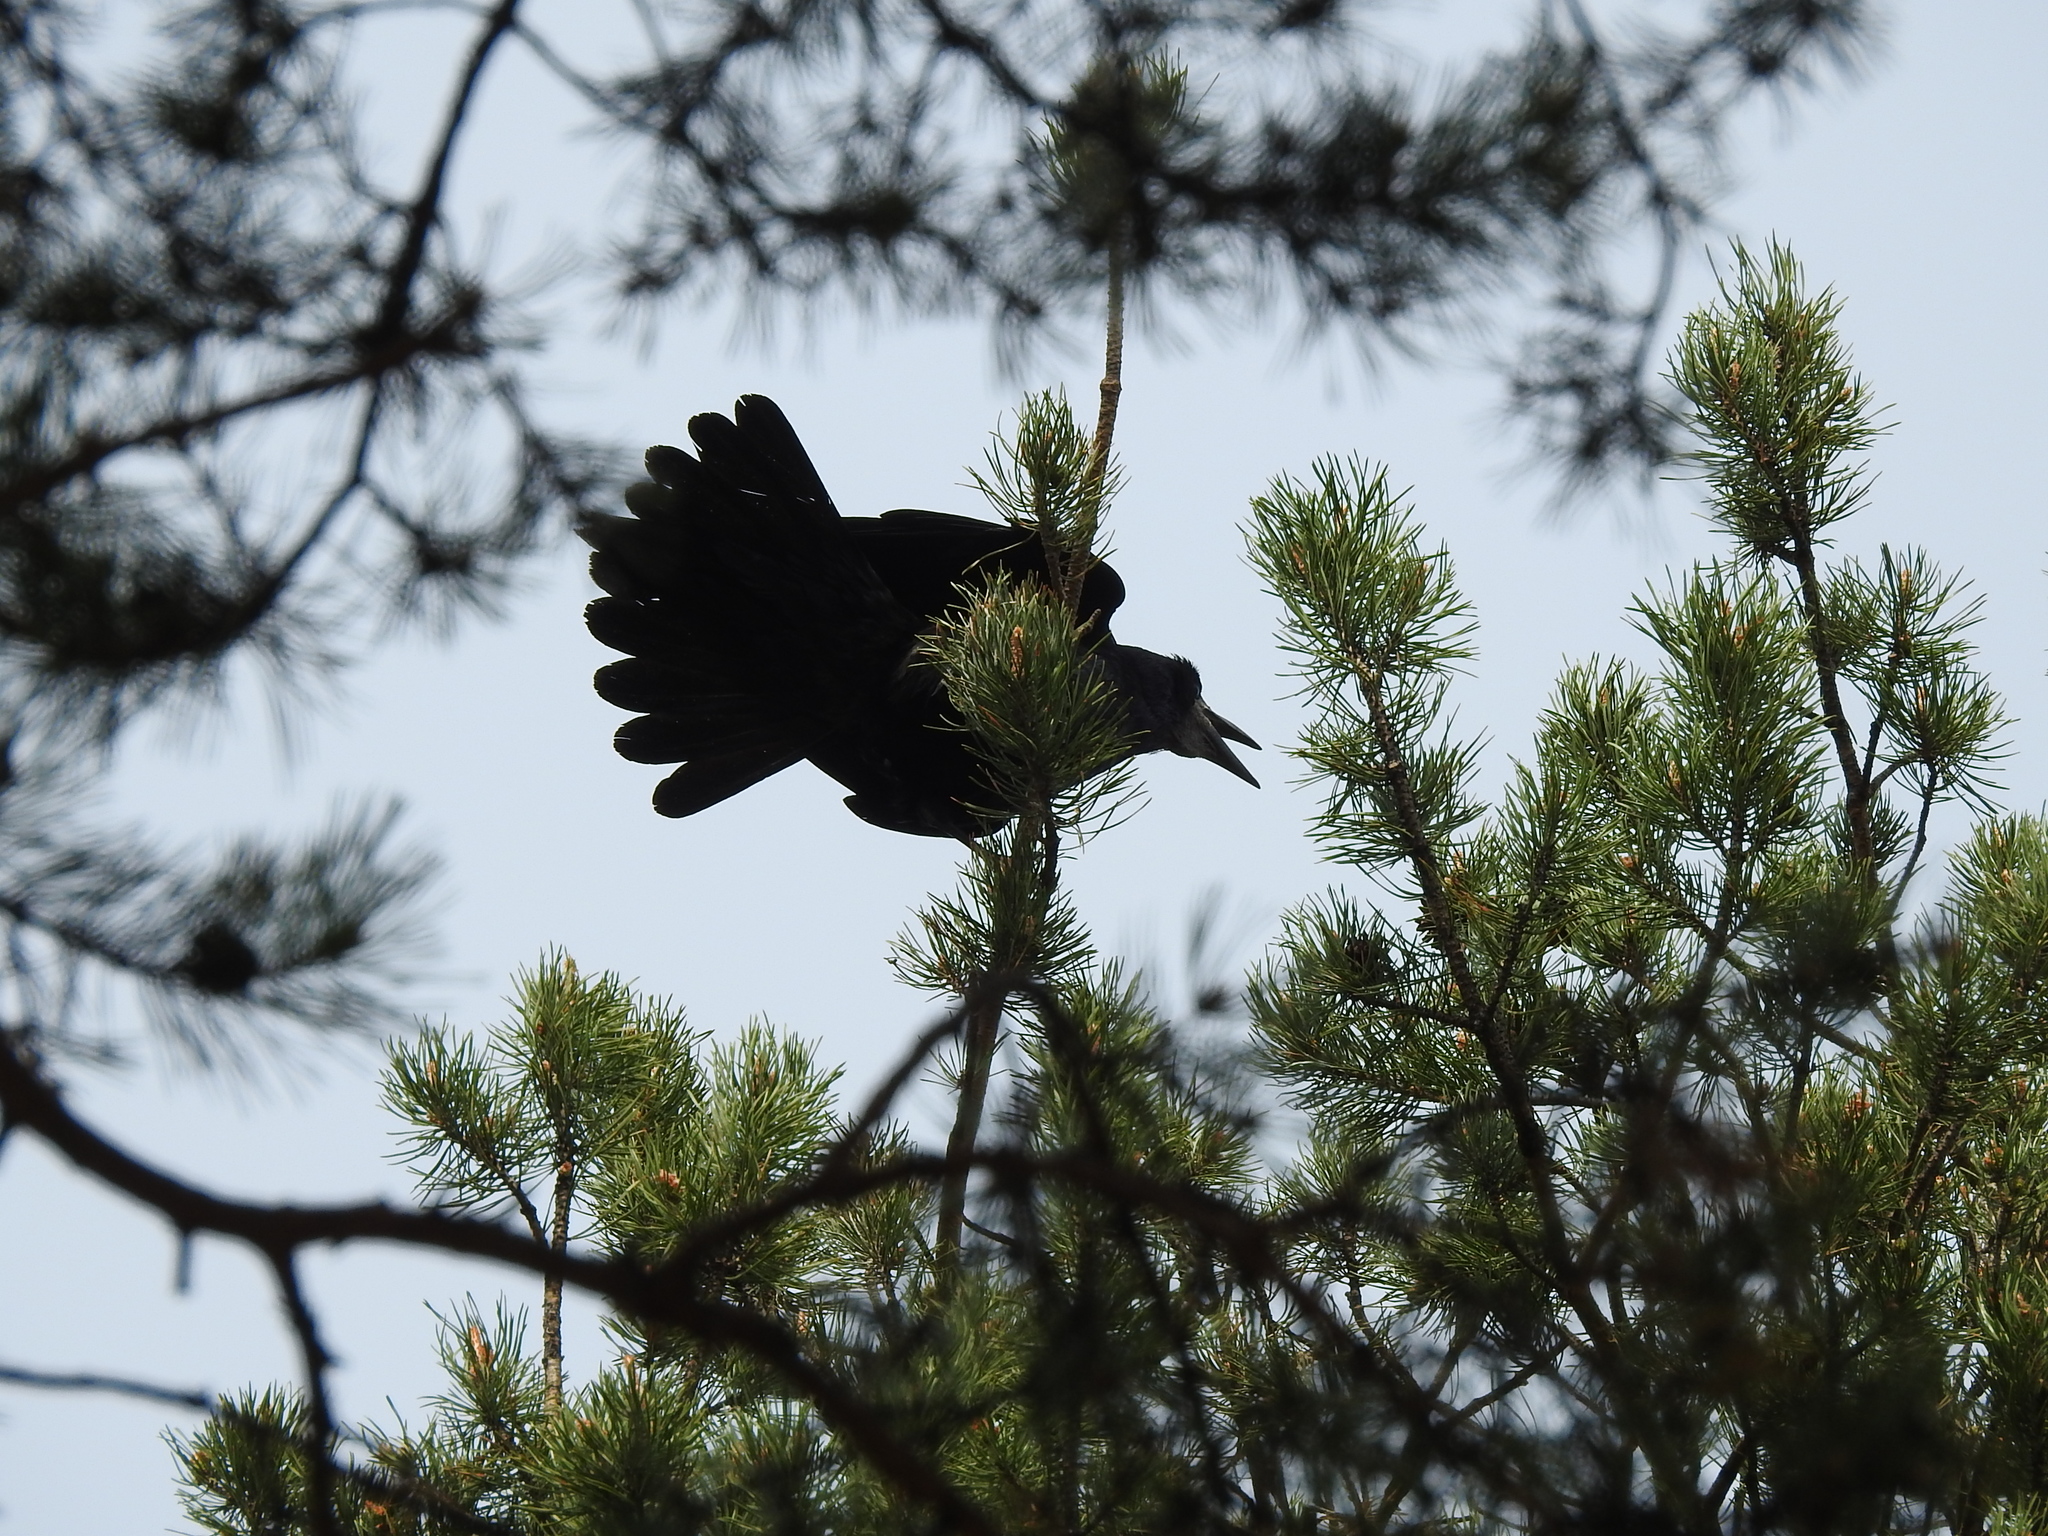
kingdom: Animalia
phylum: Chordata
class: Aves
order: Passeriformes
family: Corvidae
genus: Corvus
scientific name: Corvus frugilegus
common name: Rook
